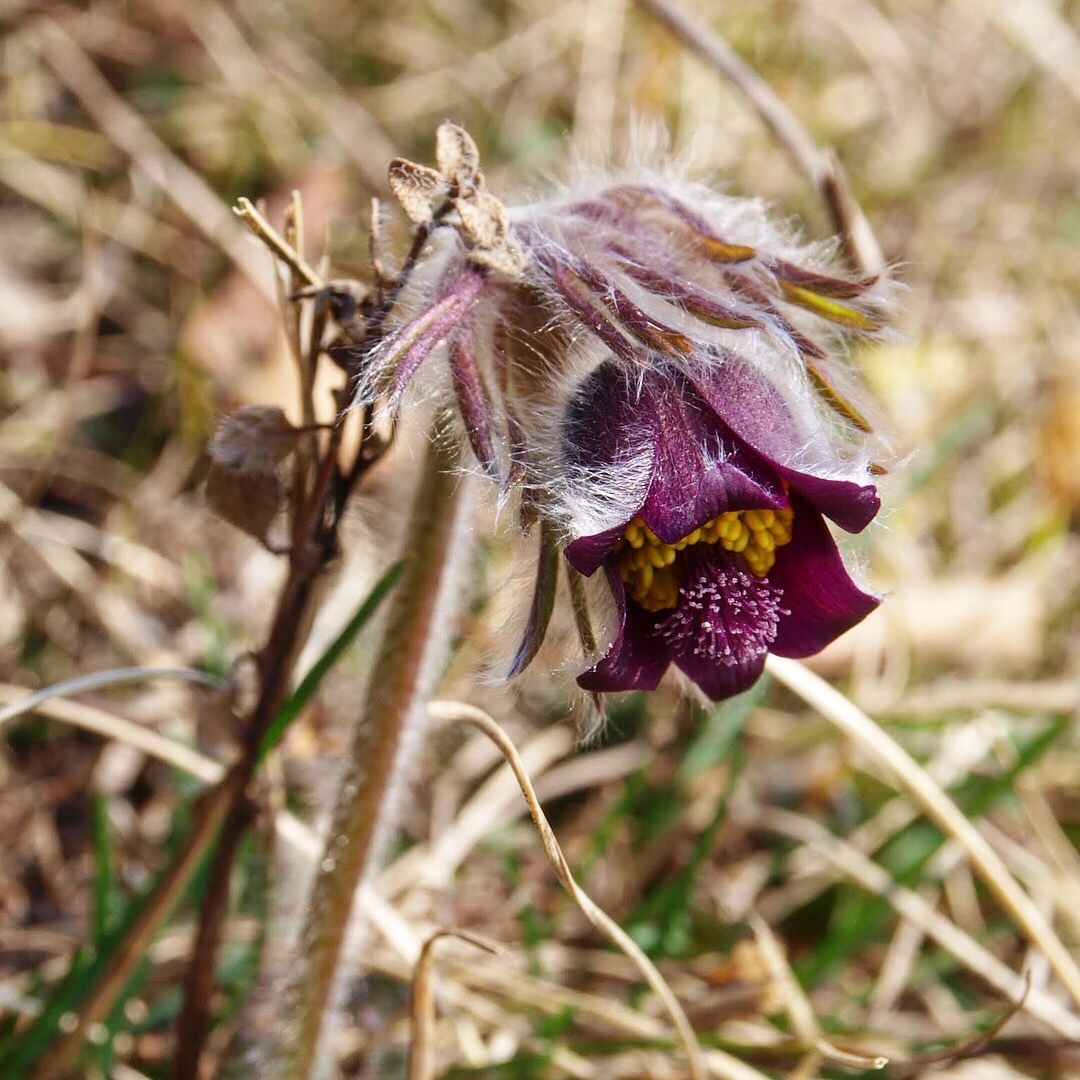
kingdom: Plantae
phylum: Tracheophyta
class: Magnoliopsida
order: Ranunculales
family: Ranunculaceae
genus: Pulsatilla
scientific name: Pulsatilla pratensis
